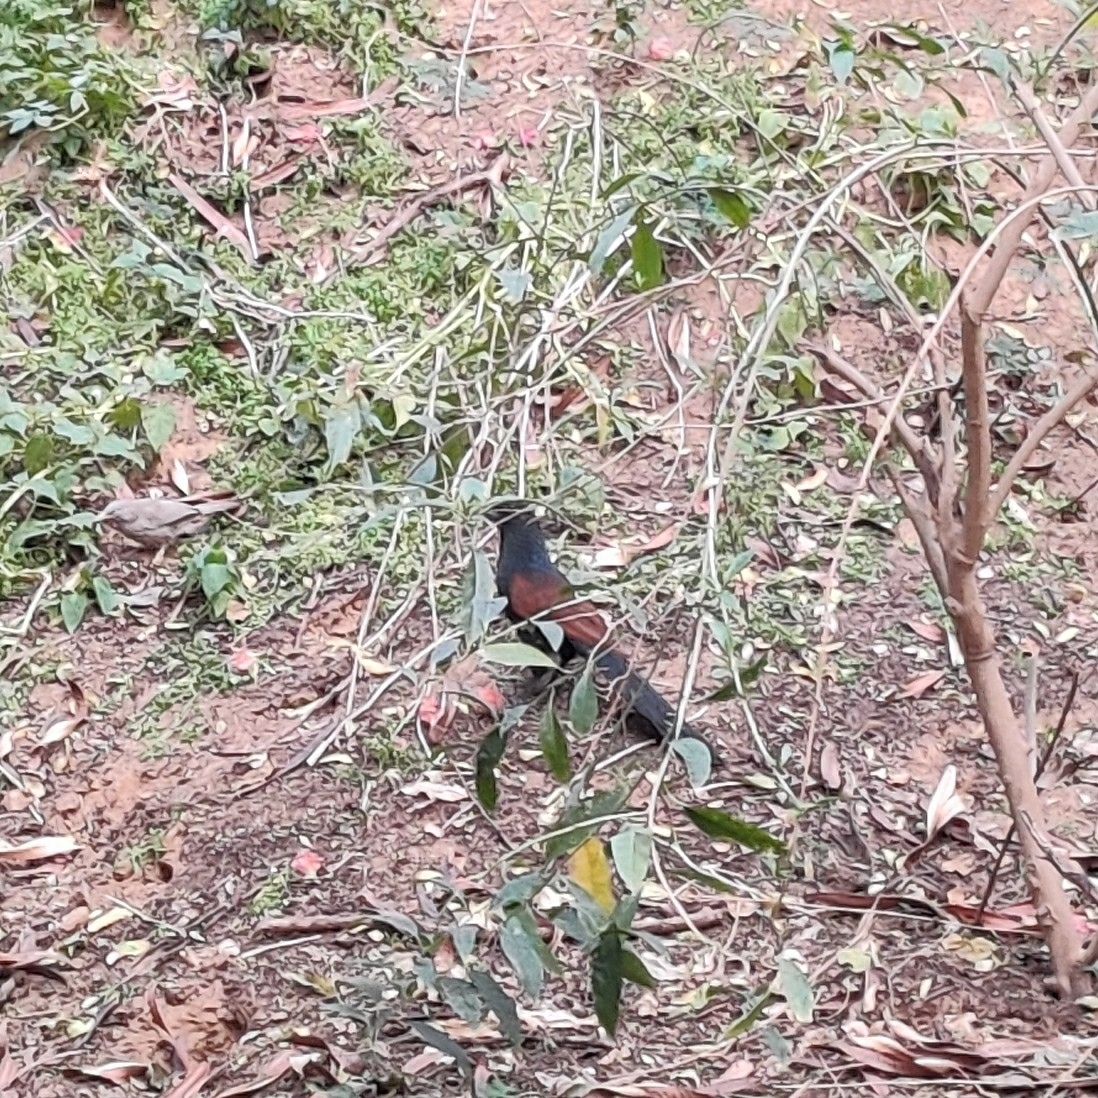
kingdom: Animalia
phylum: Chordata
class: Aves
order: Passeriformes
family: Leiothrichidae
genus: Turdoides
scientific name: Turdoides striata
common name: Jungle babbler
